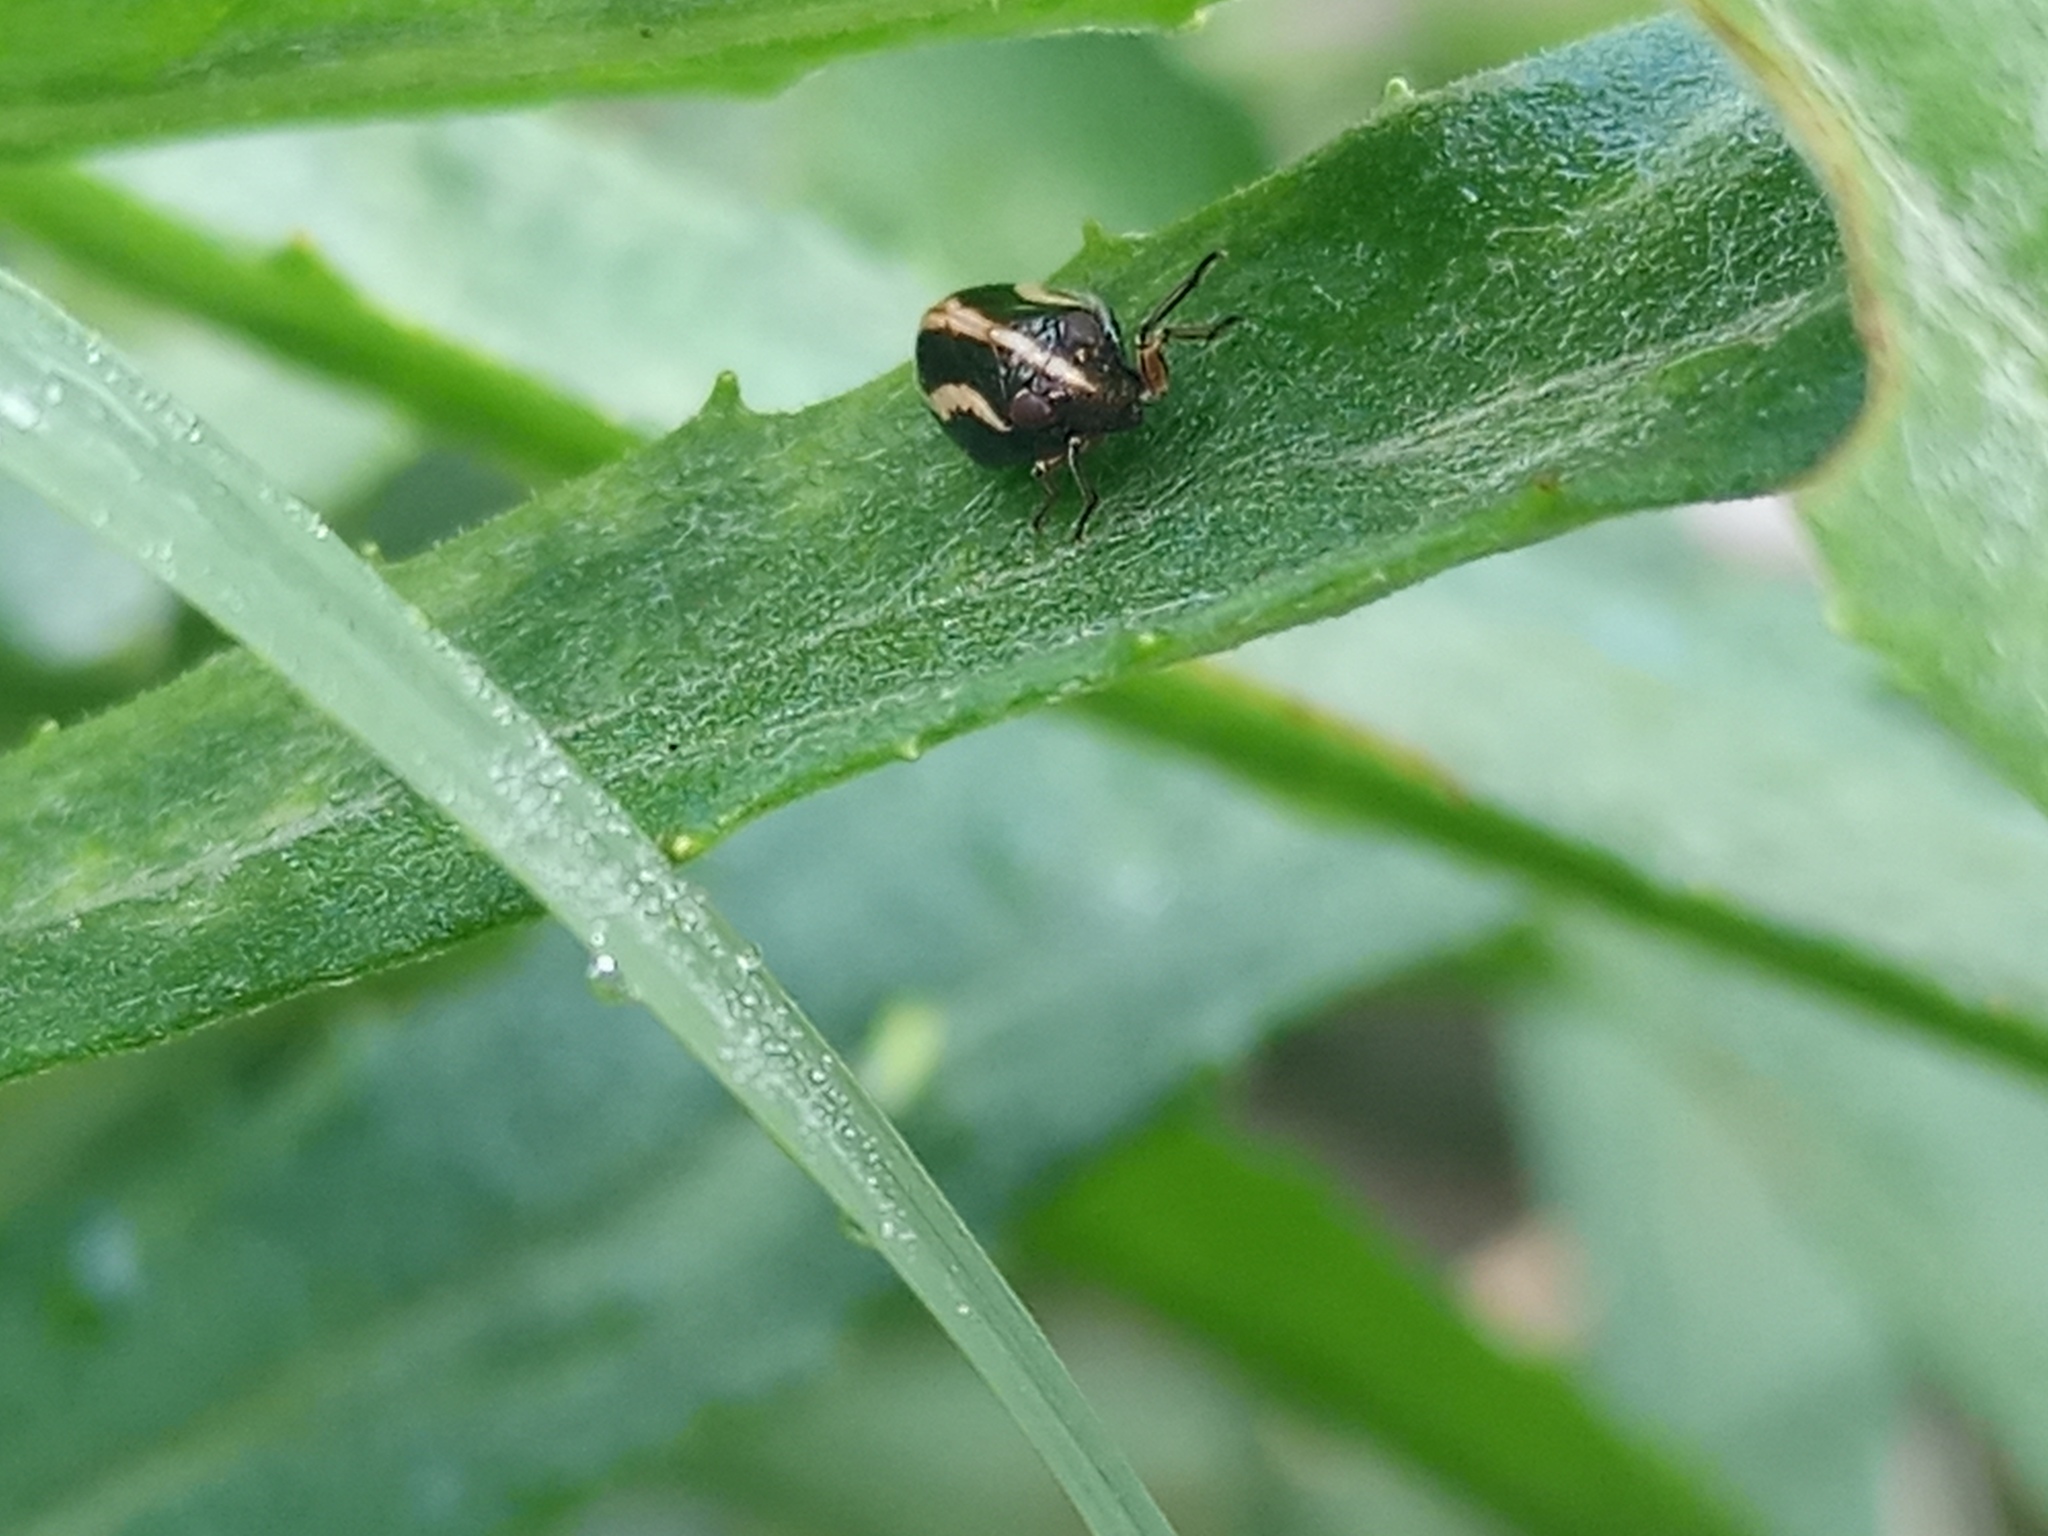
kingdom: Animalia
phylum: Arthropoda
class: Insecta
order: Hemiptera
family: Issidae
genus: Argepara
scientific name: Argepara lyra
